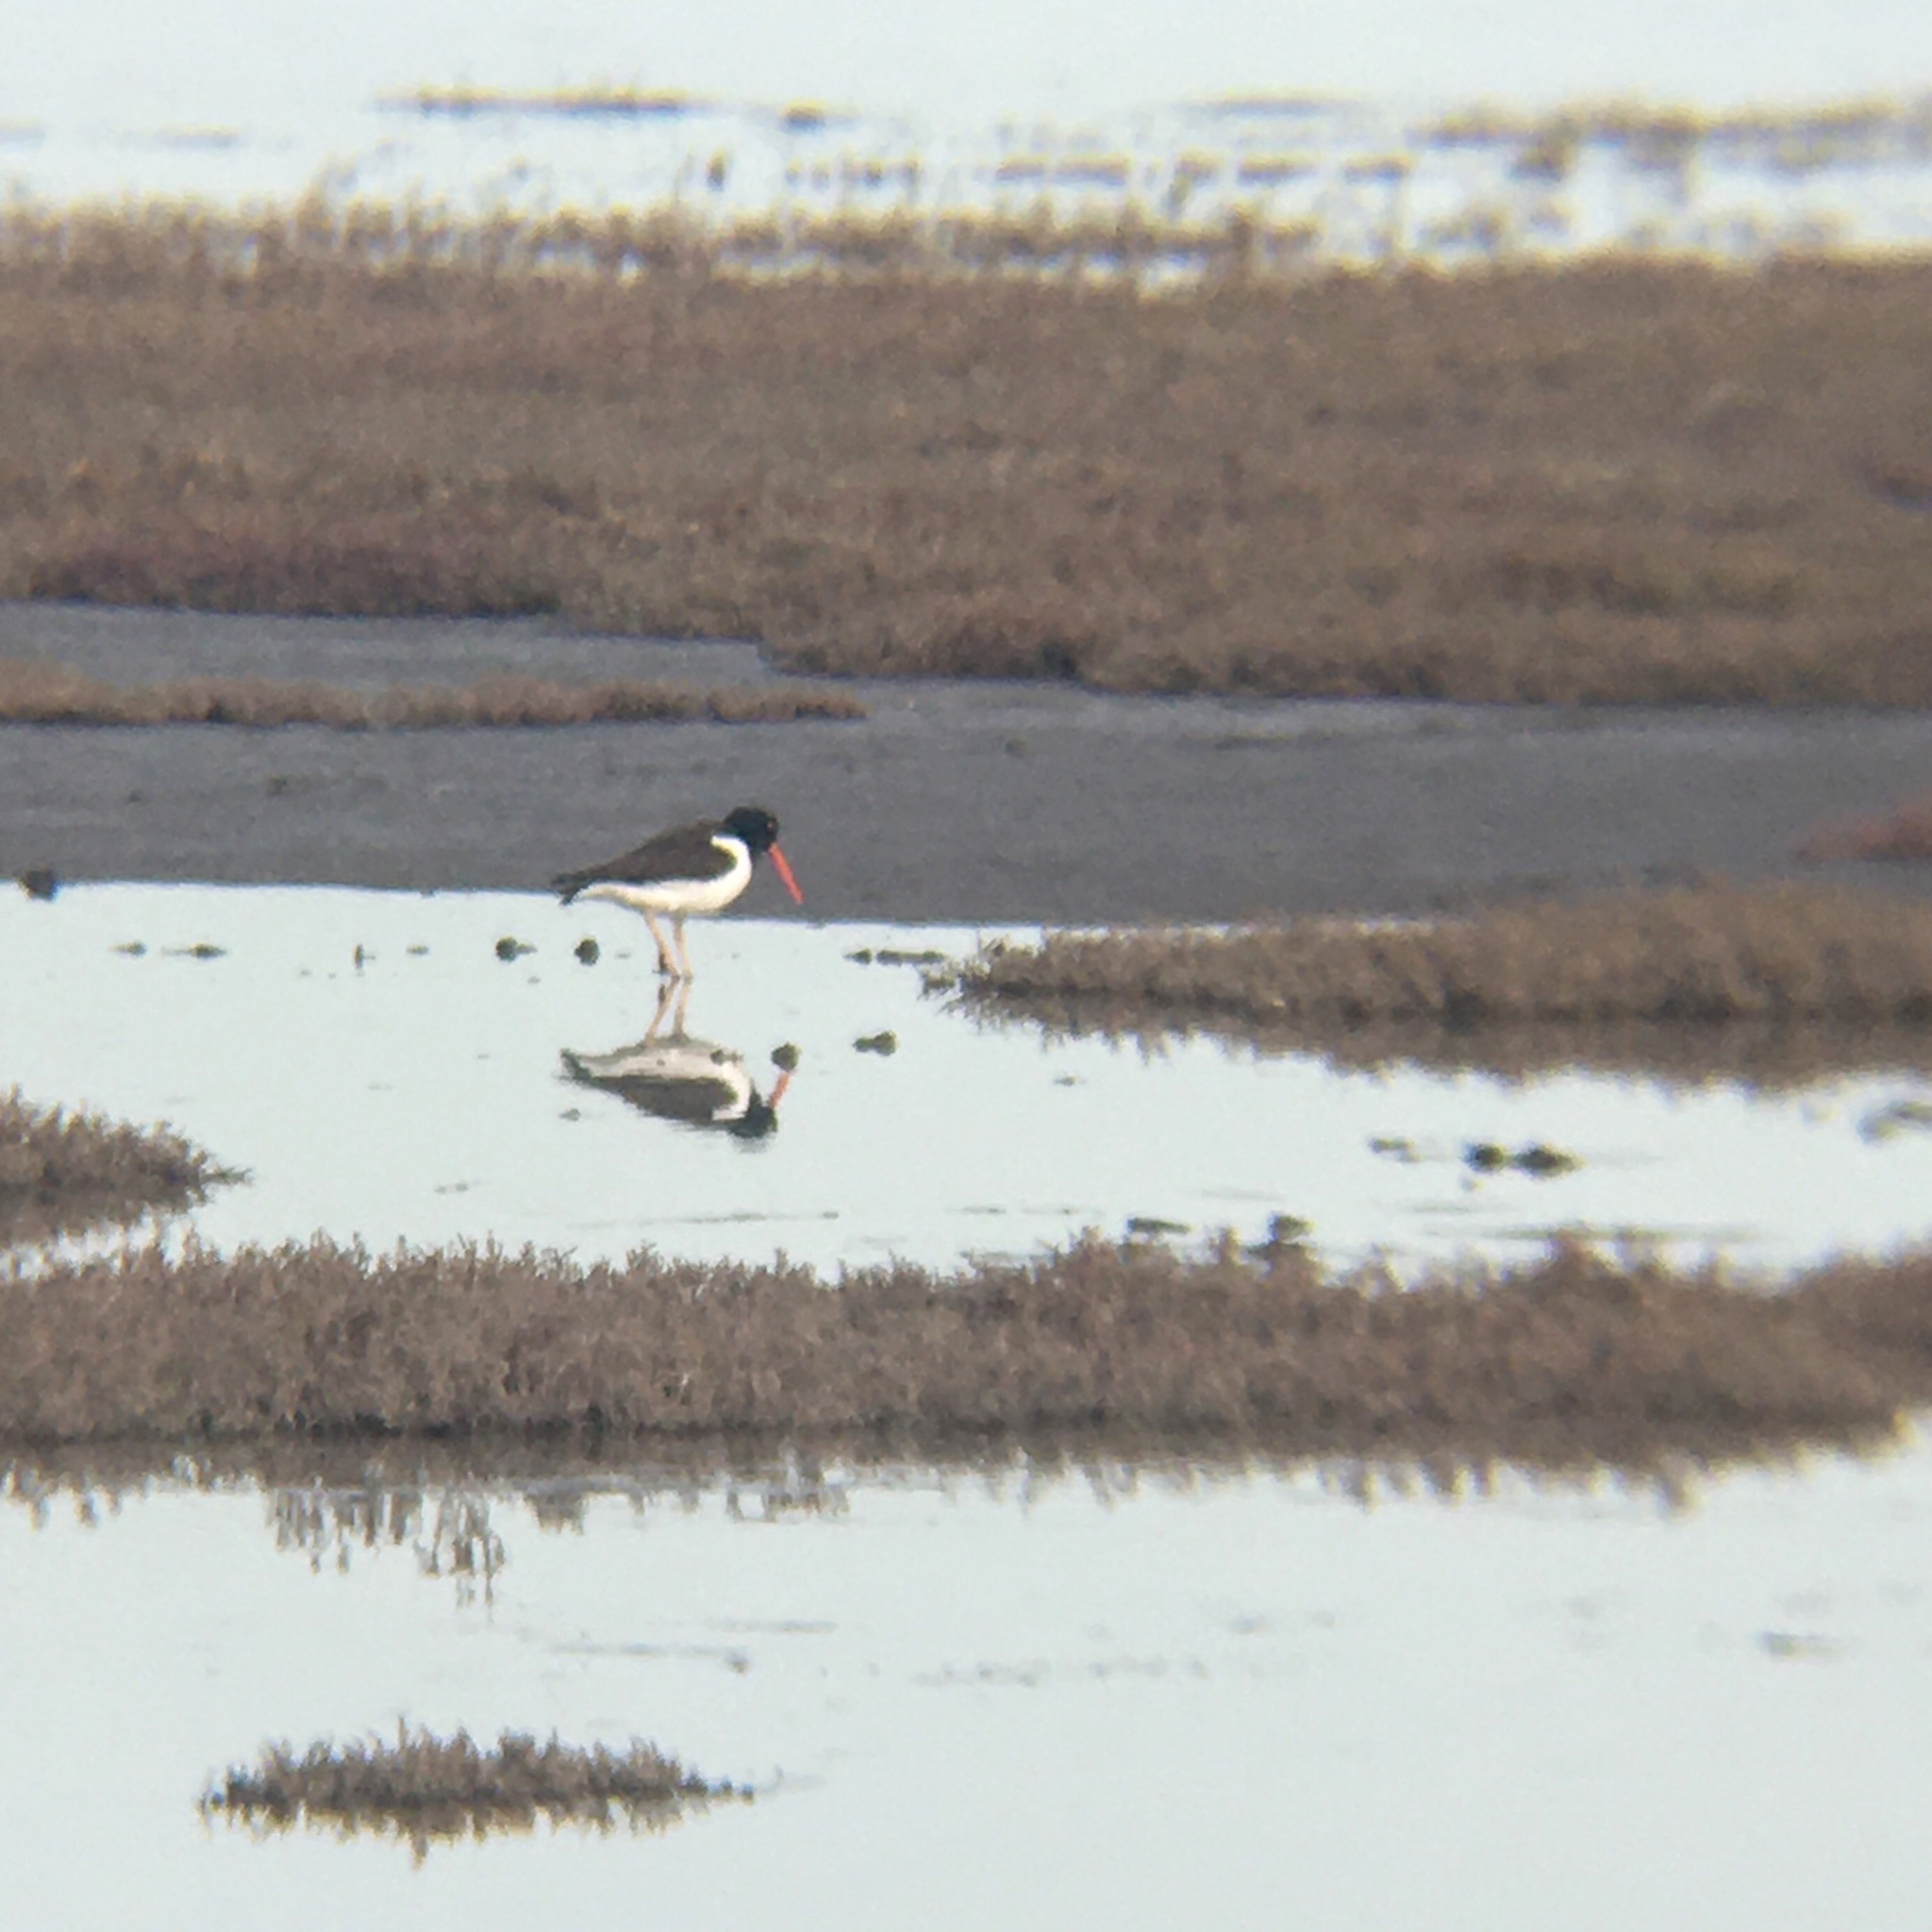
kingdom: Animalia
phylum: Chordata
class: Aves
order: Charadriiformes
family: Haematopodidae
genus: Haematopus
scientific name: Haematopus palliatus
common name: American oystercatcher
